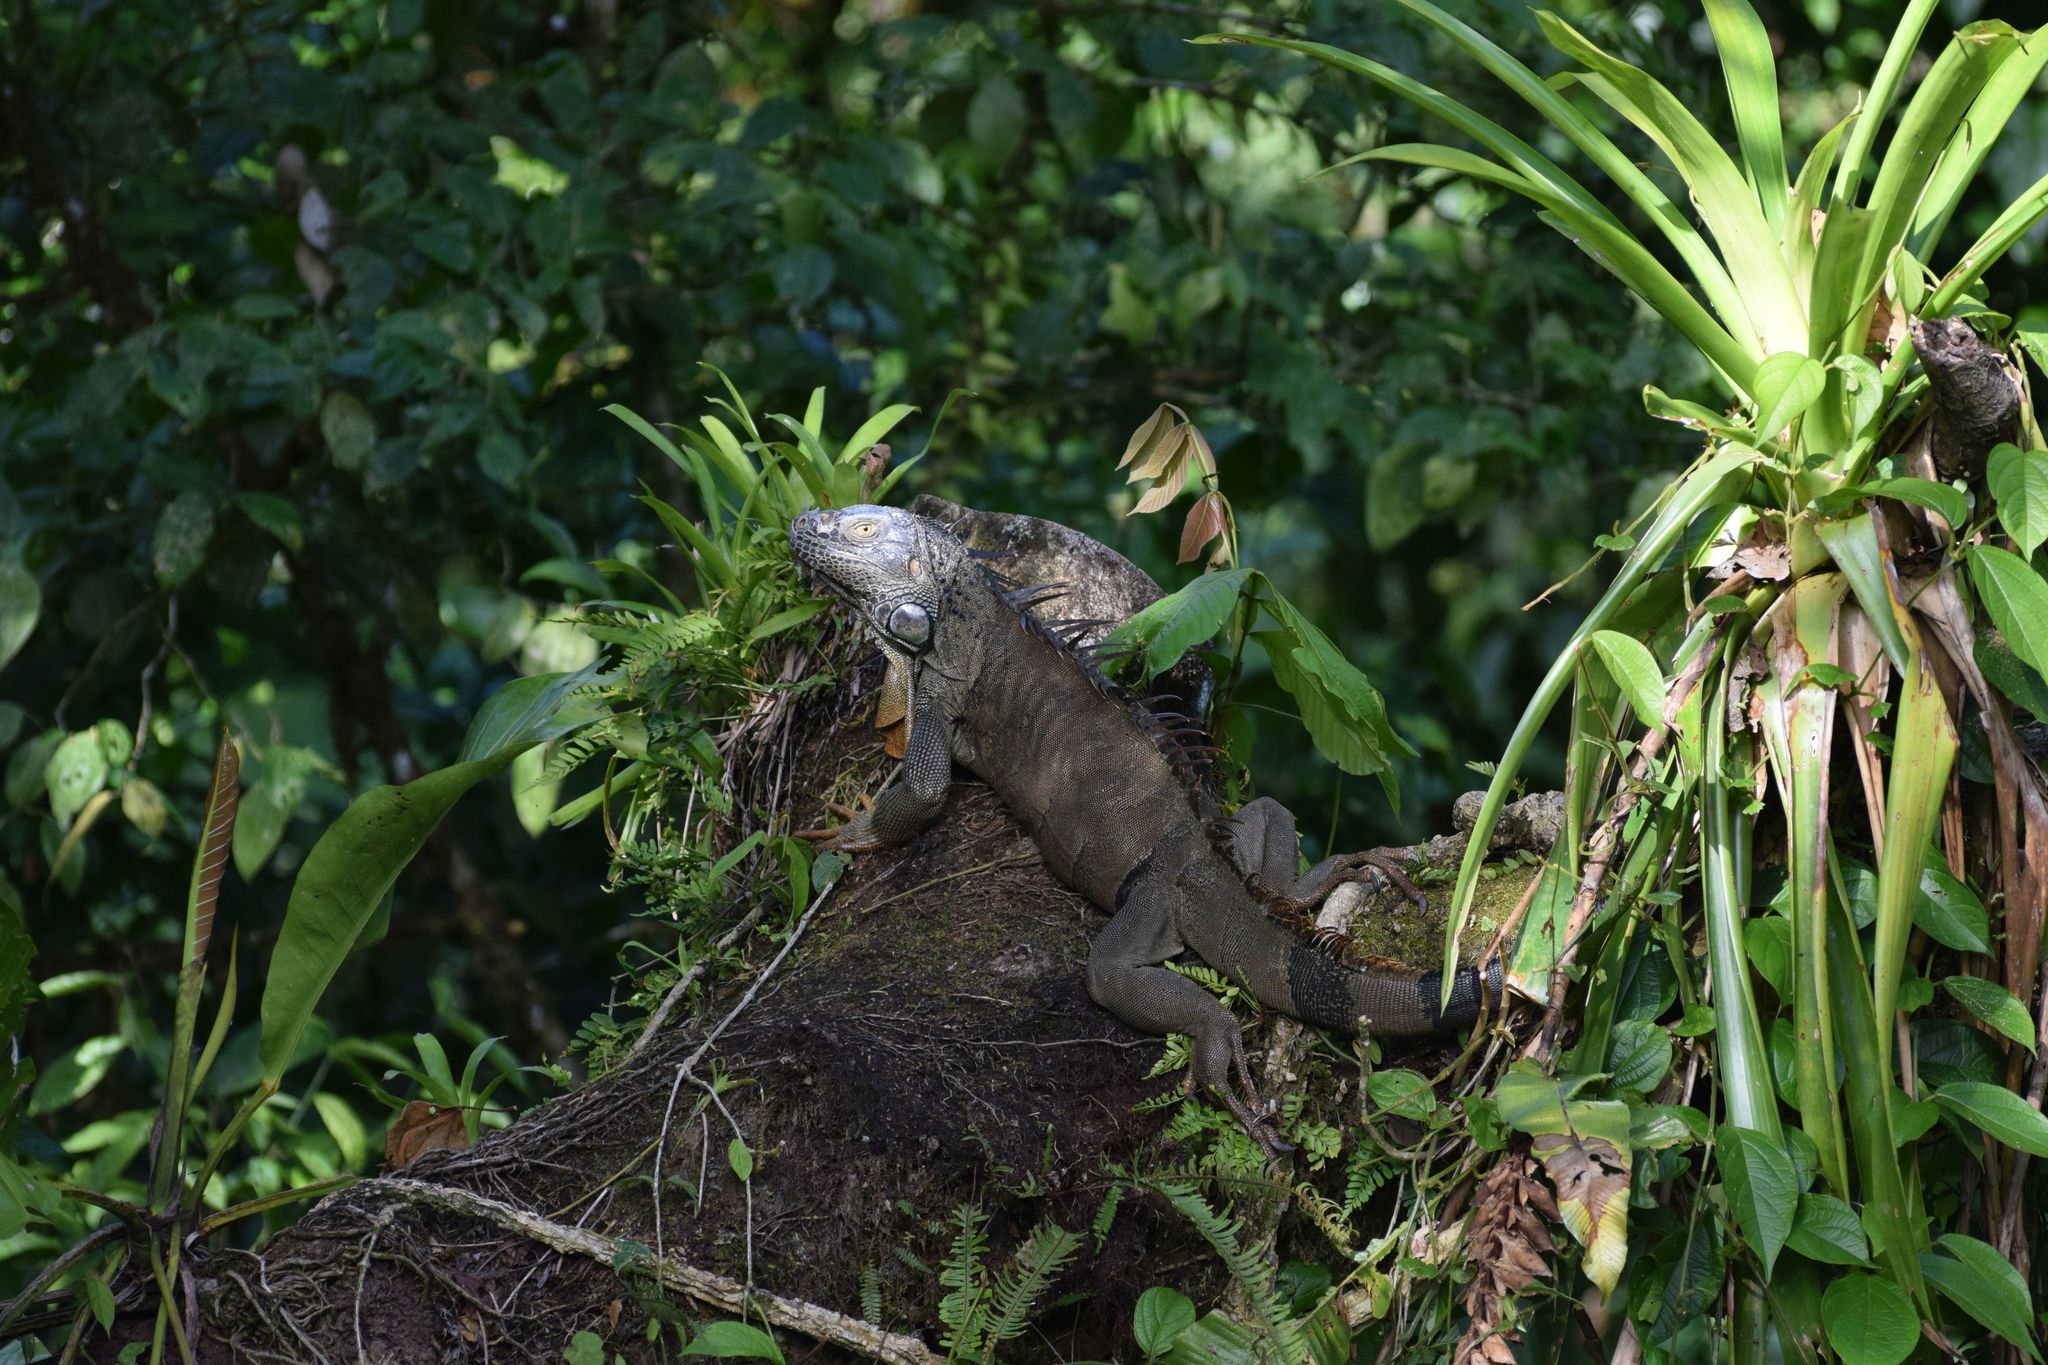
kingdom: Animalia
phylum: Chordata
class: Squamata
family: Iguanidae
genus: Iguana
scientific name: Iguana iguana
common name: Green iguana
